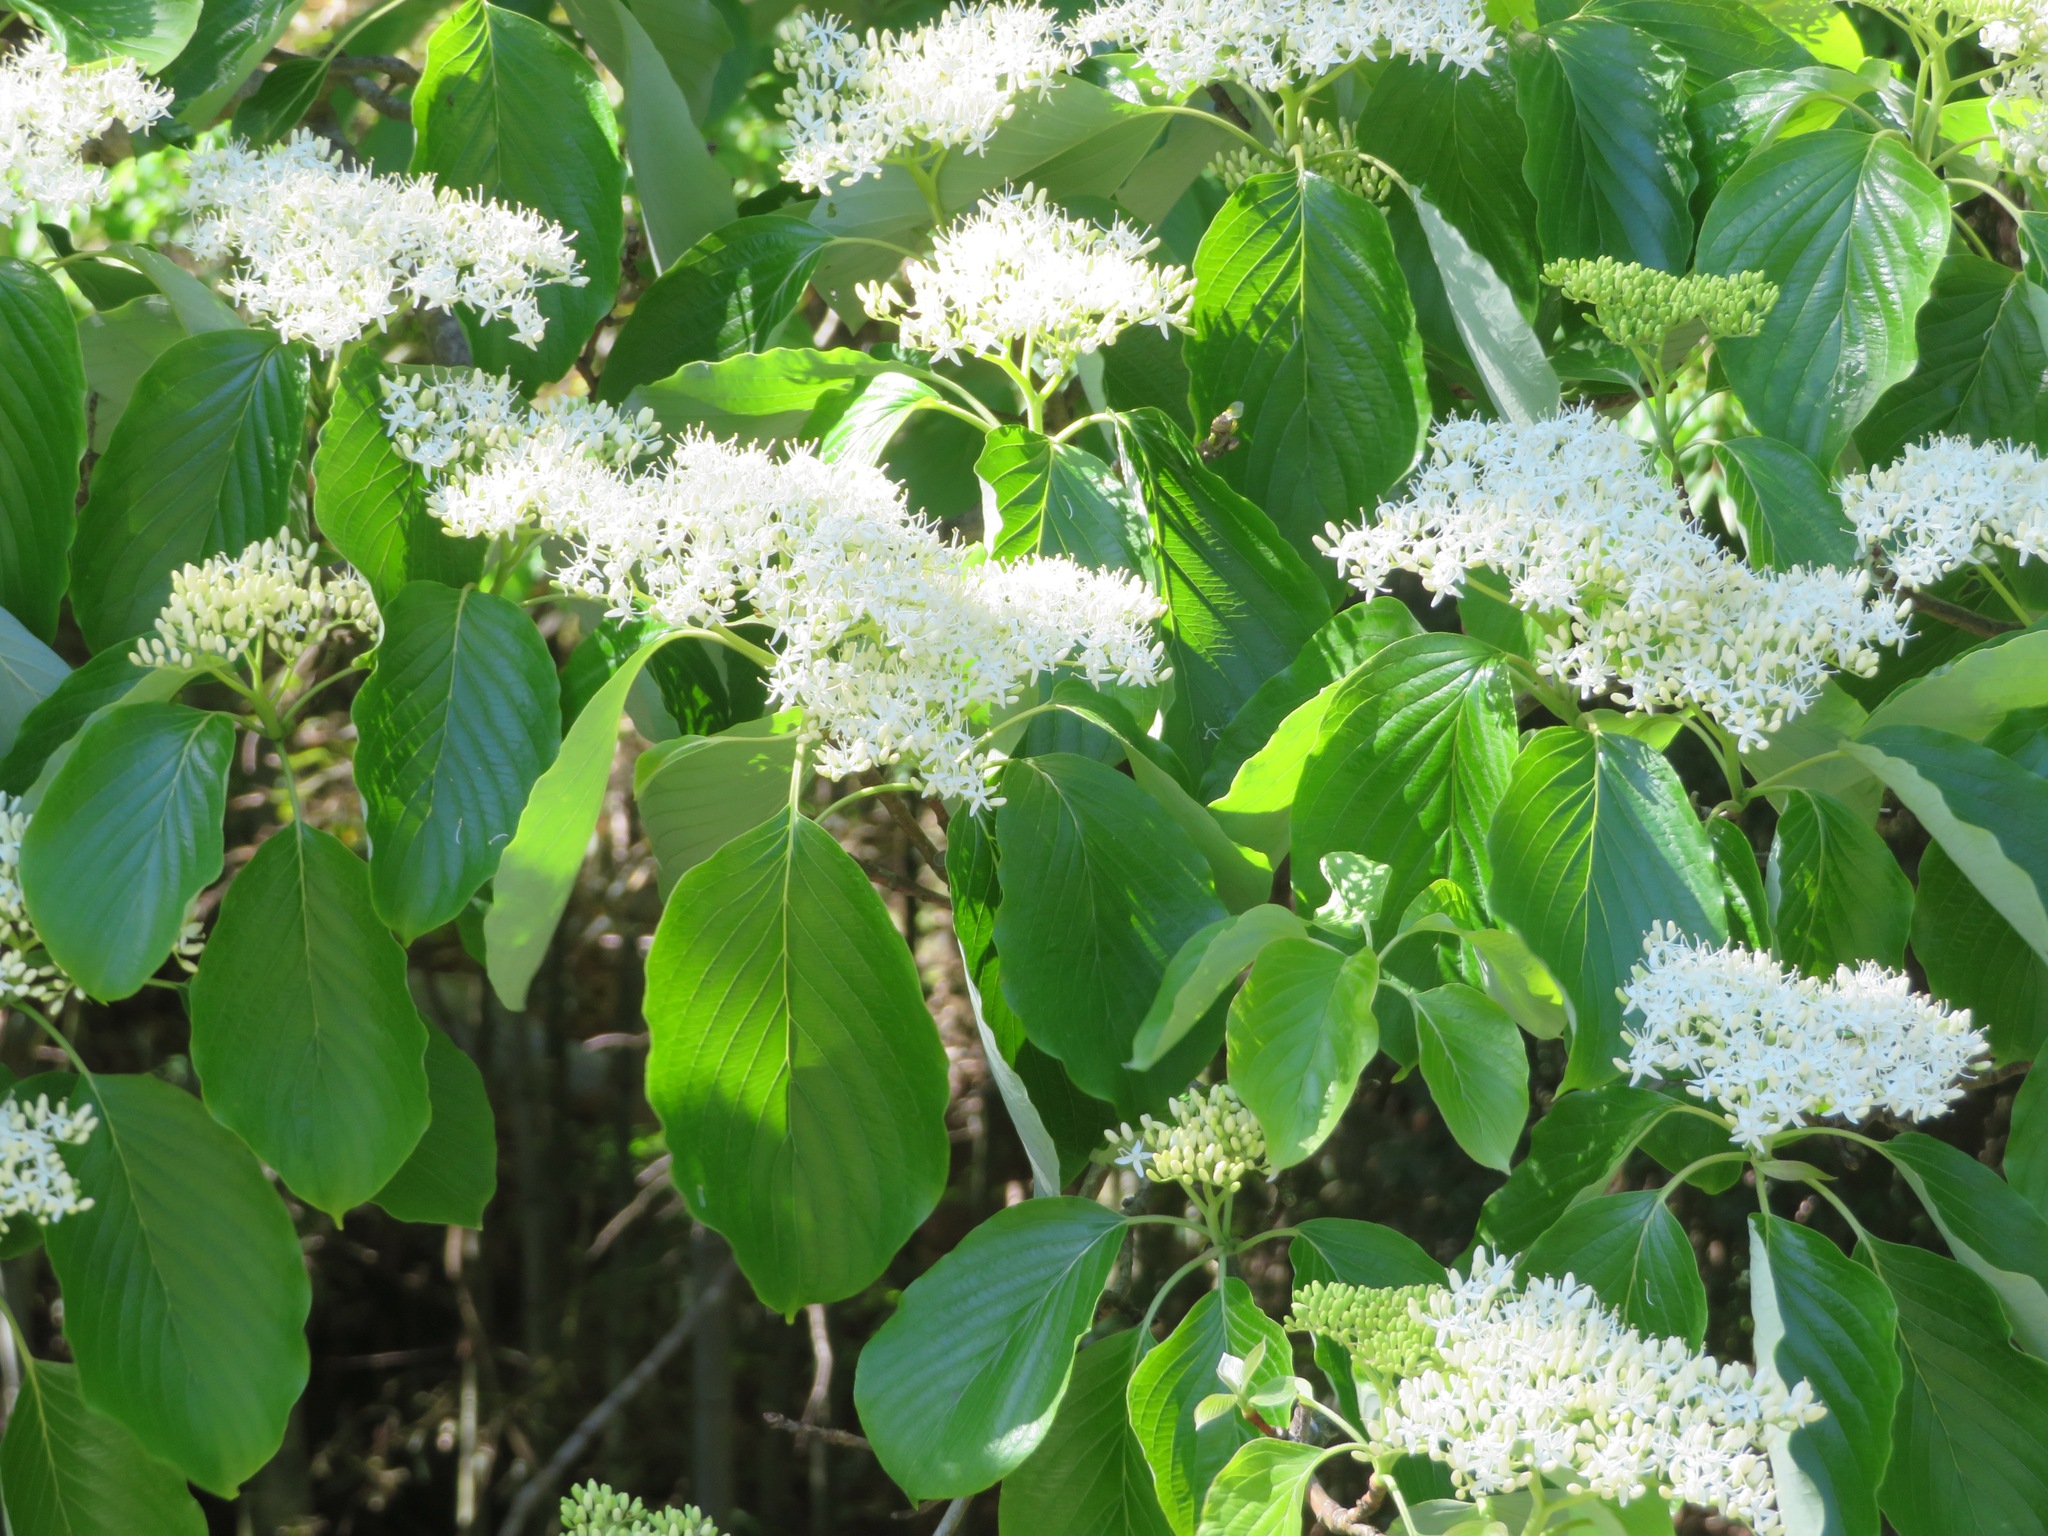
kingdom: Plantae
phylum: Tracheophyta
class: Magnoliopsida
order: Cornales
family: Cornaceae
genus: Cornus
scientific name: Cornus controversa
